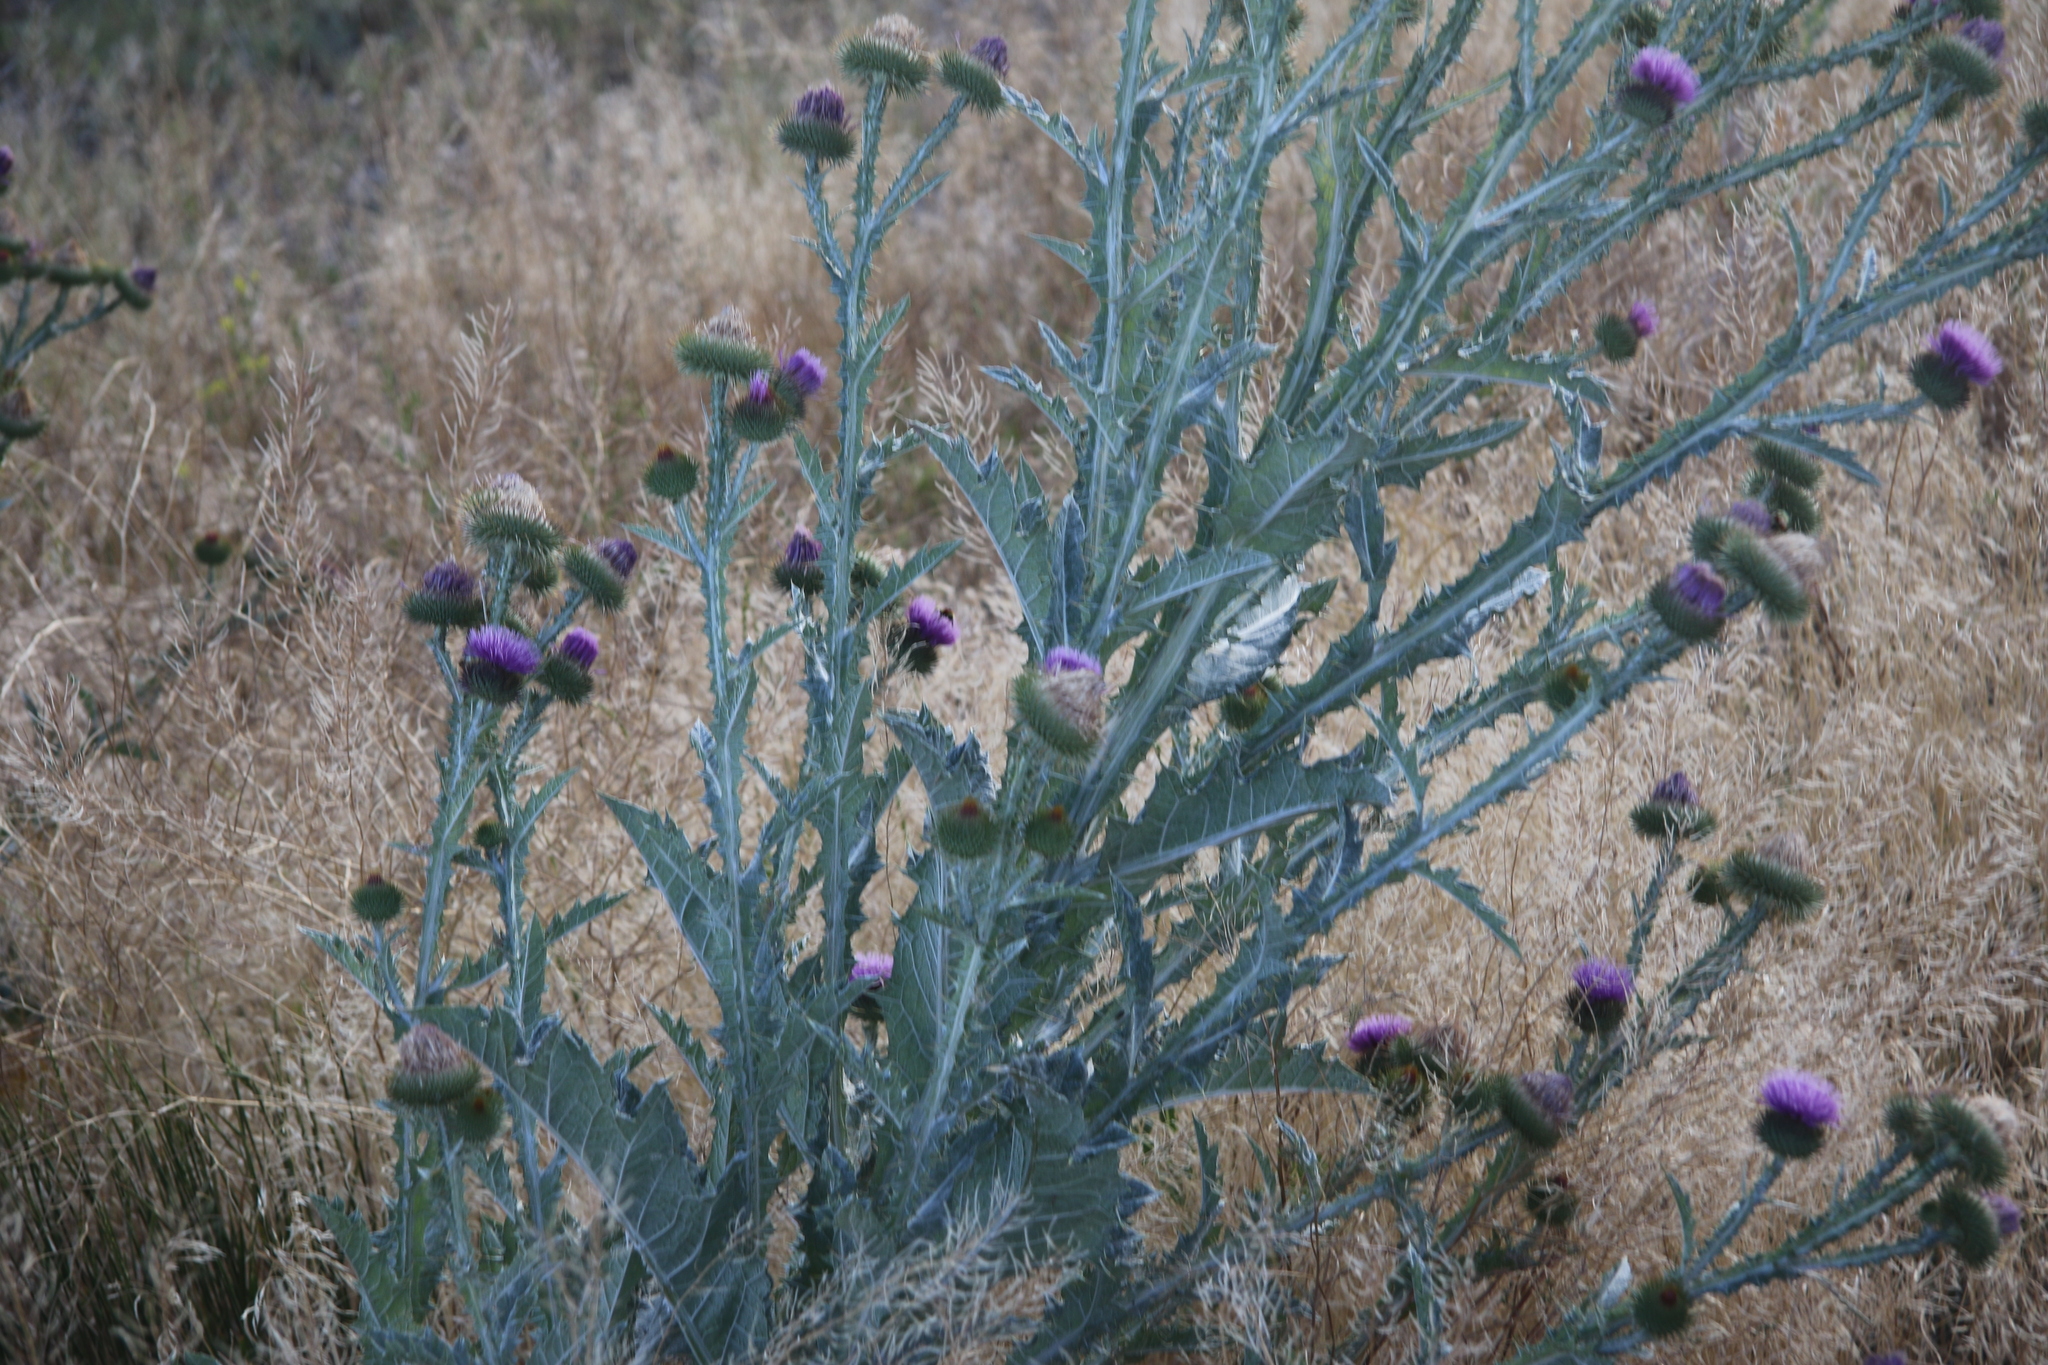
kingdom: Plantae
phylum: Tracheophyta
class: Magnoliopsida
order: Asterales
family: Asteraceae
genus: Onopordum
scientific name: Onopordum acanthium
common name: Scotch thistle
